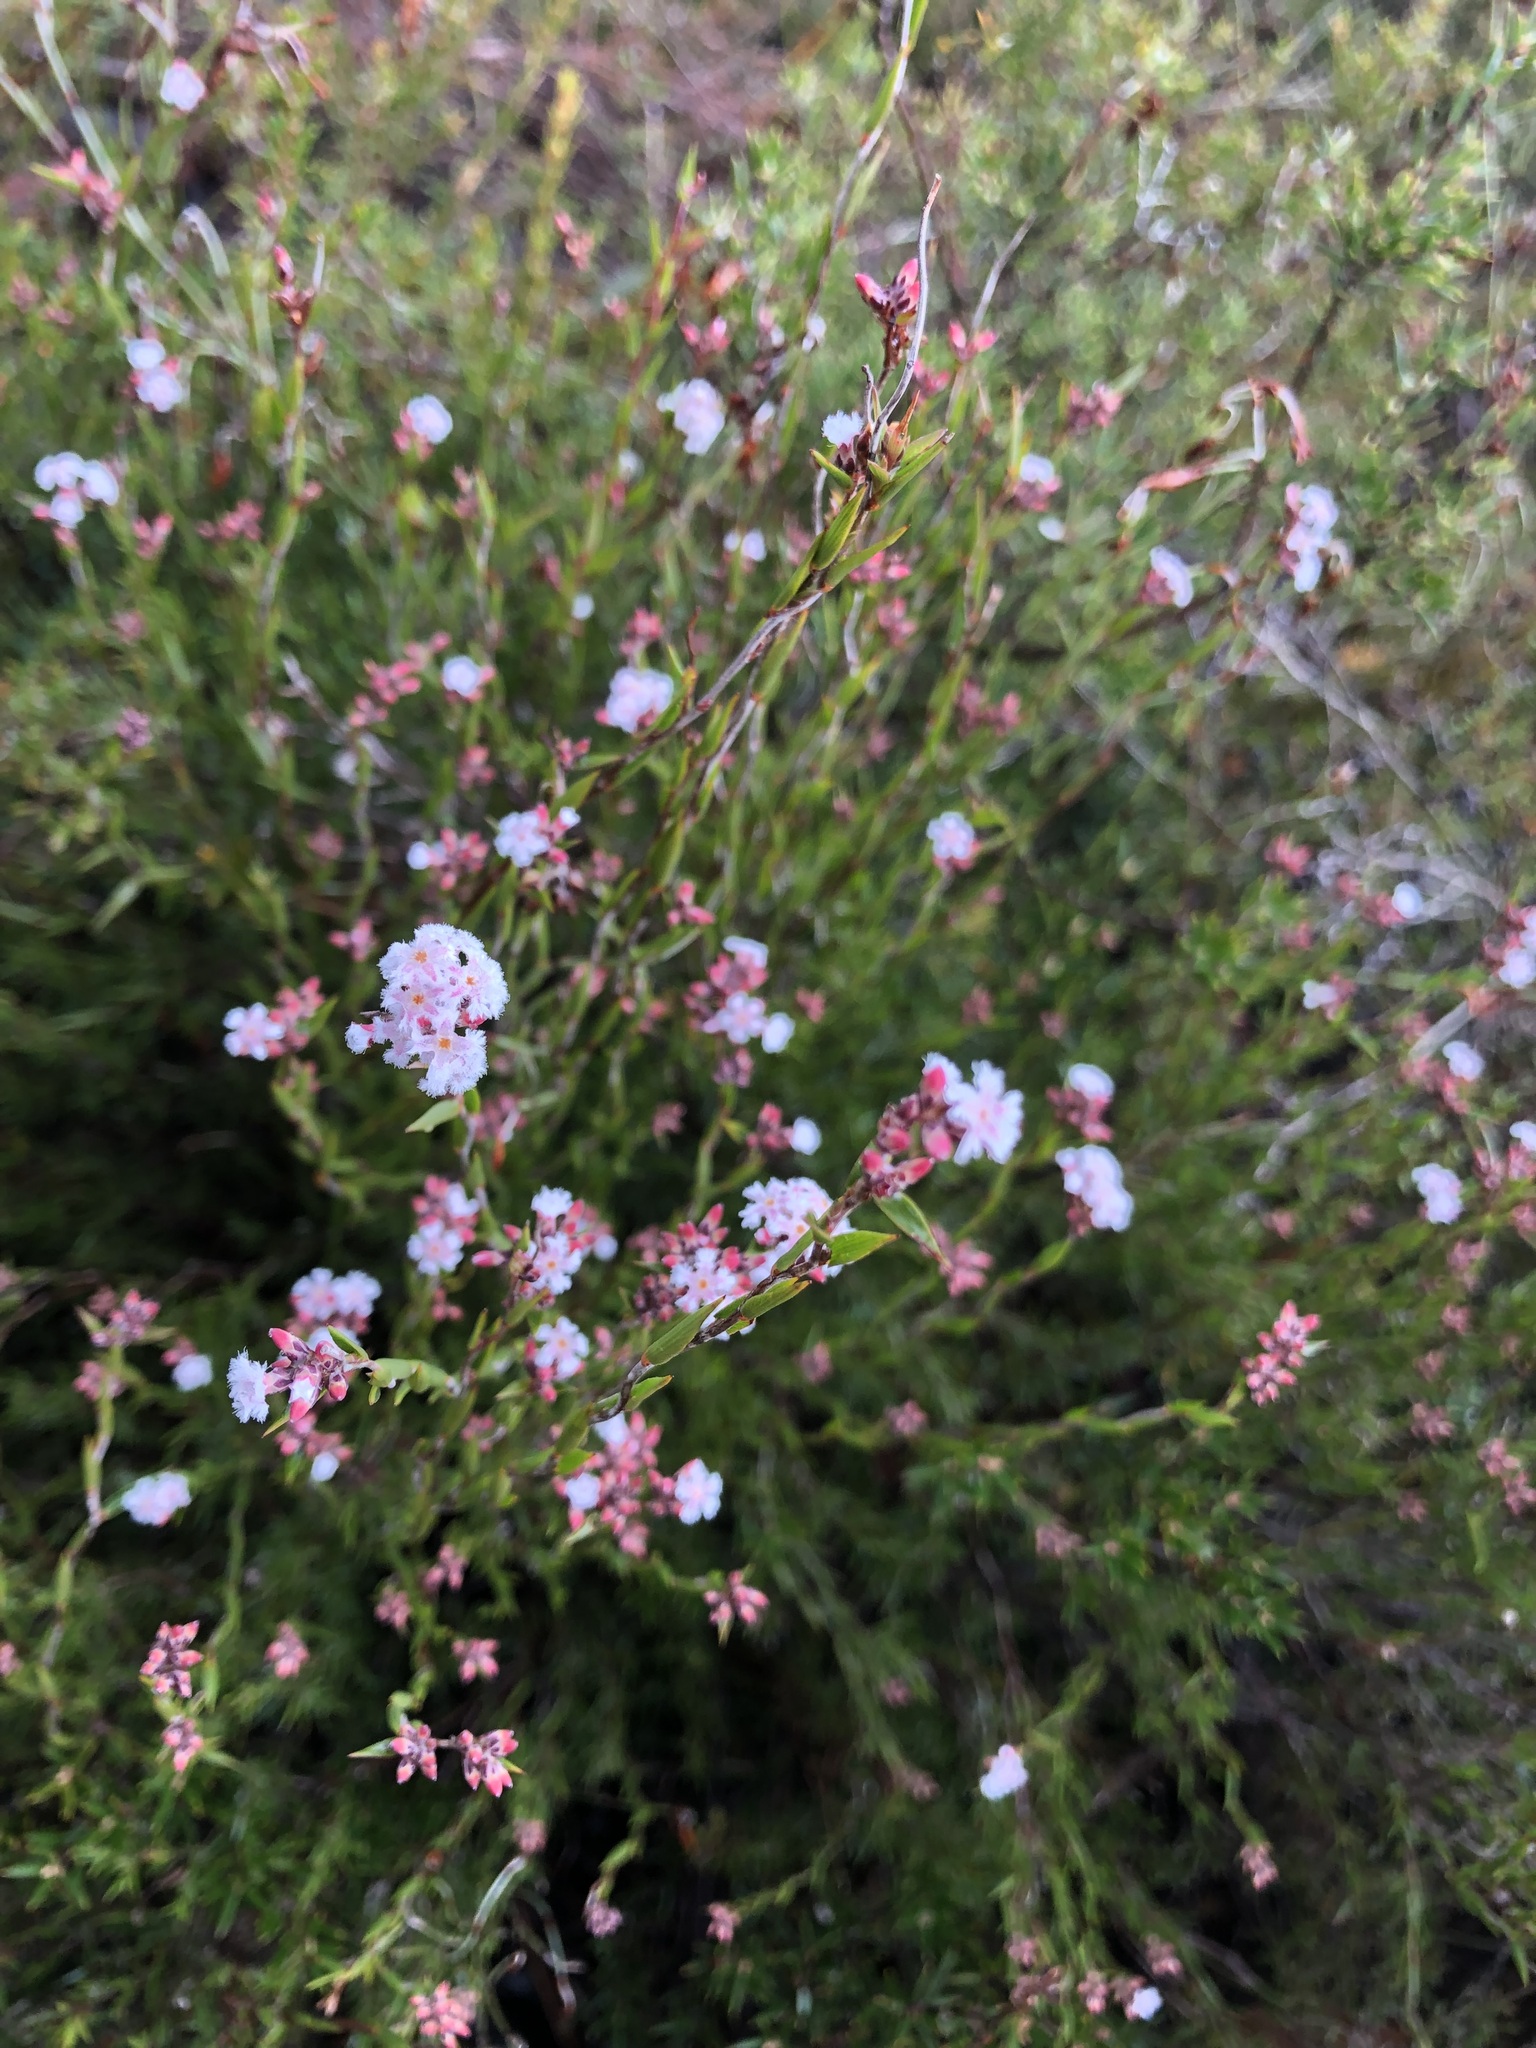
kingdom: Plantae
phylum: Tracheophyta
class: Magnoliopsida
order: Ericales
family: Ericaceae
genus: Leucopogon
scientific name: Leucopogon virgatus
